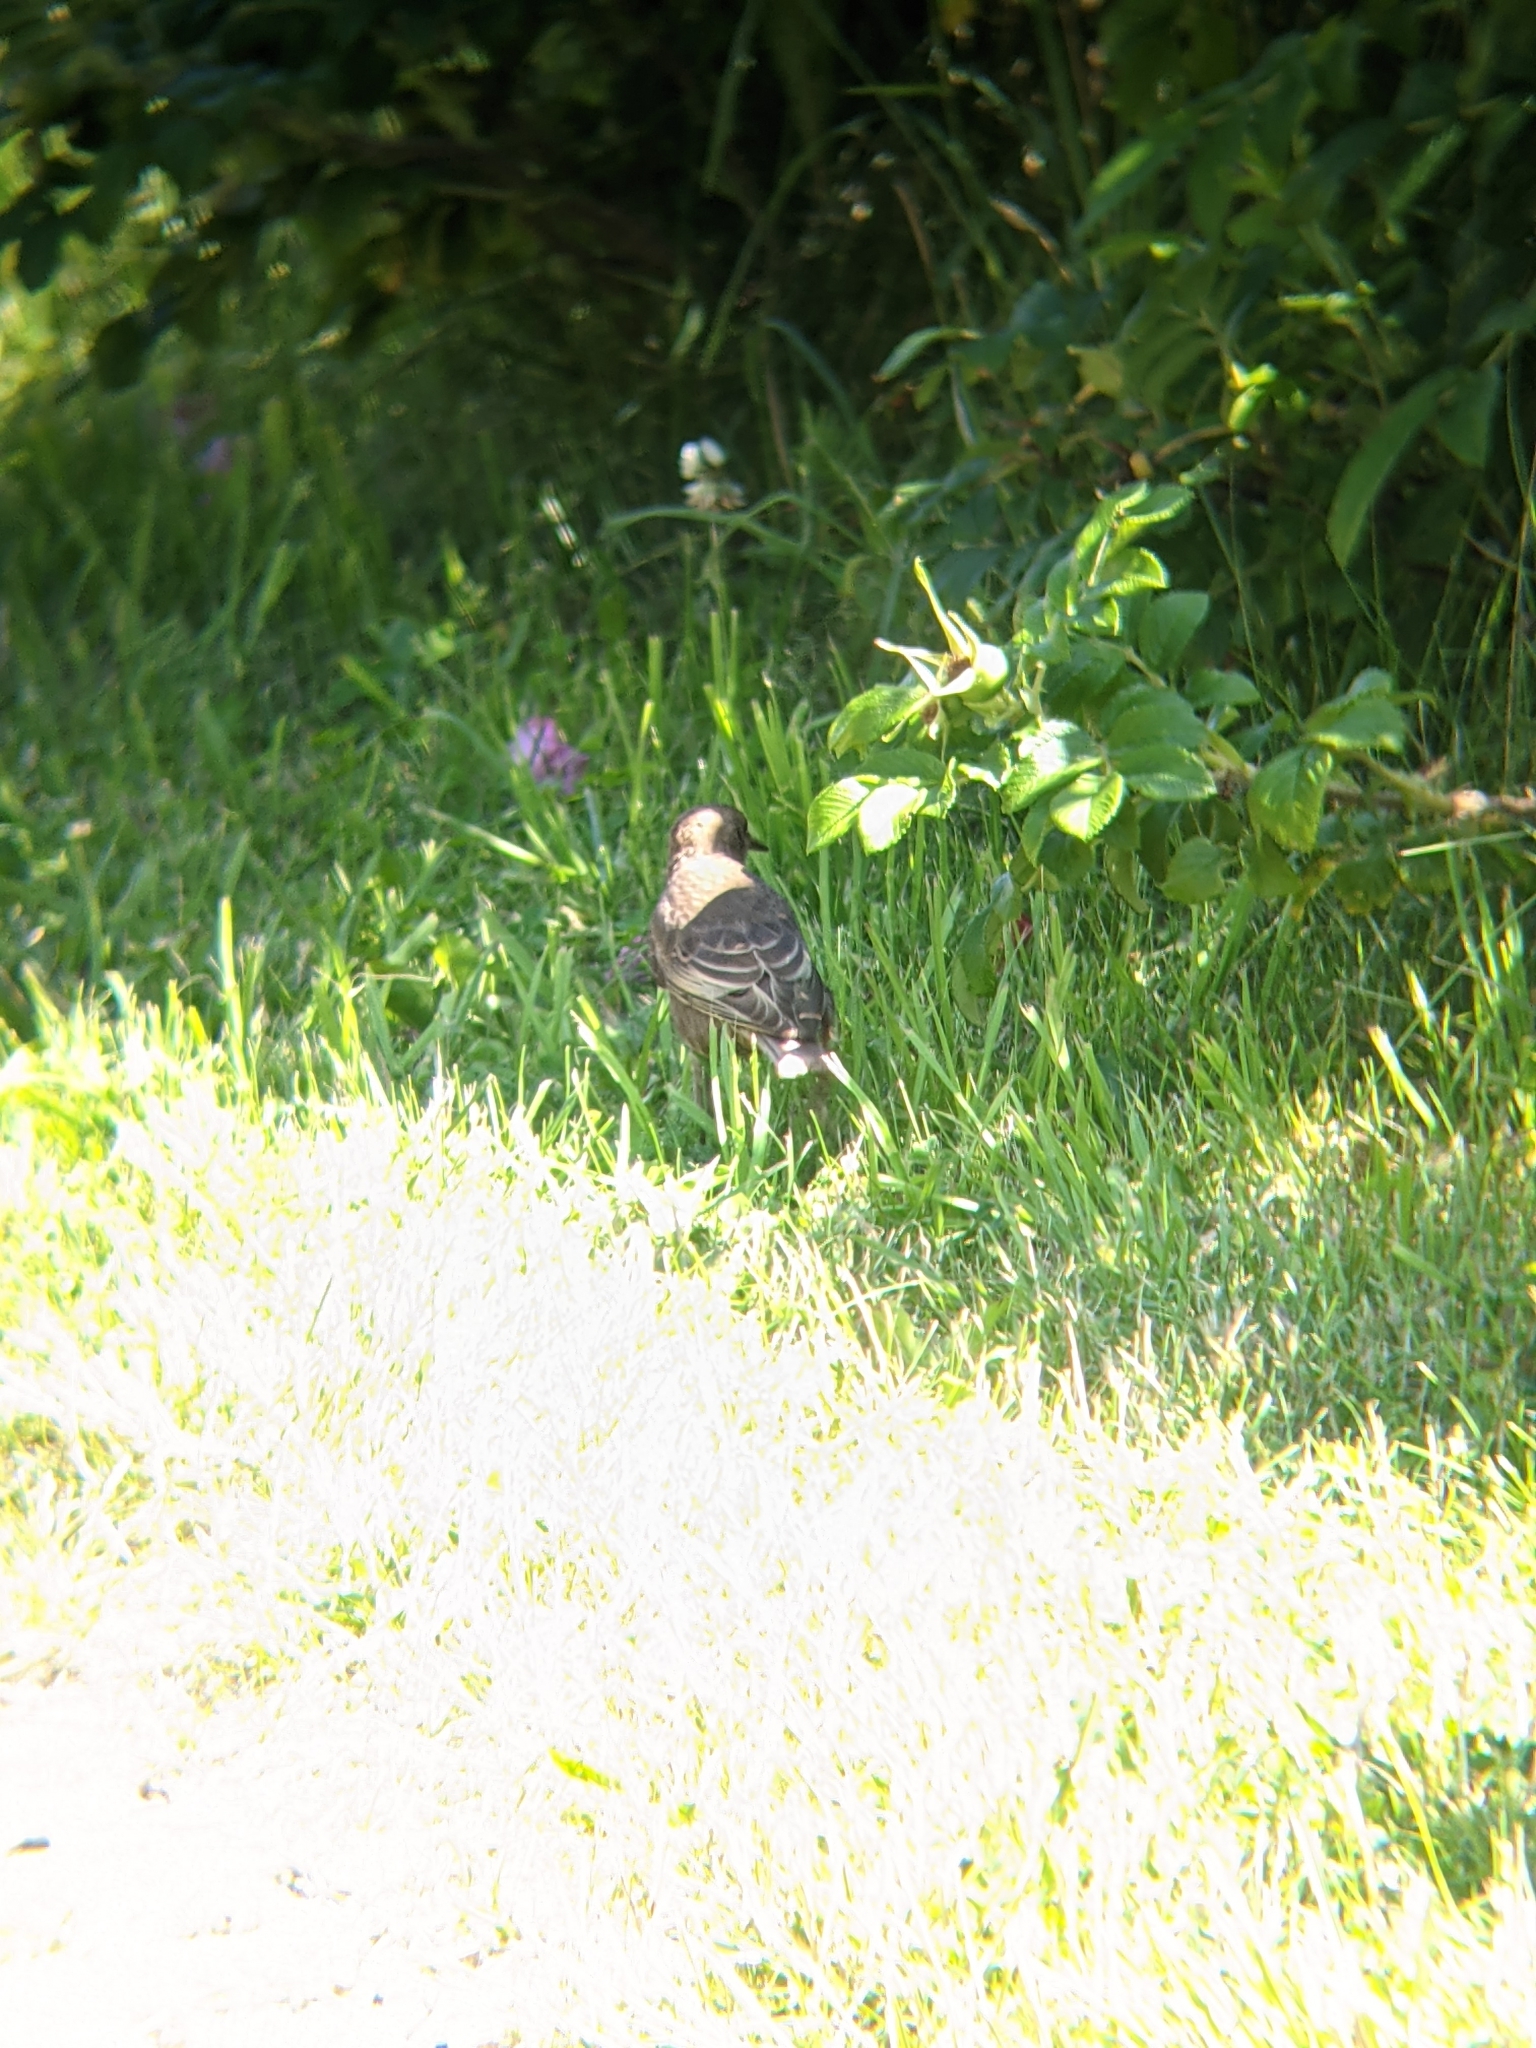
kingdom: Animalia
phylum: Chordata
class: Aves
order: Passeriformes
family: Sturnidae
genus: Sturnus
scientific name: Sturnus vulgaris
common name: Common starling
